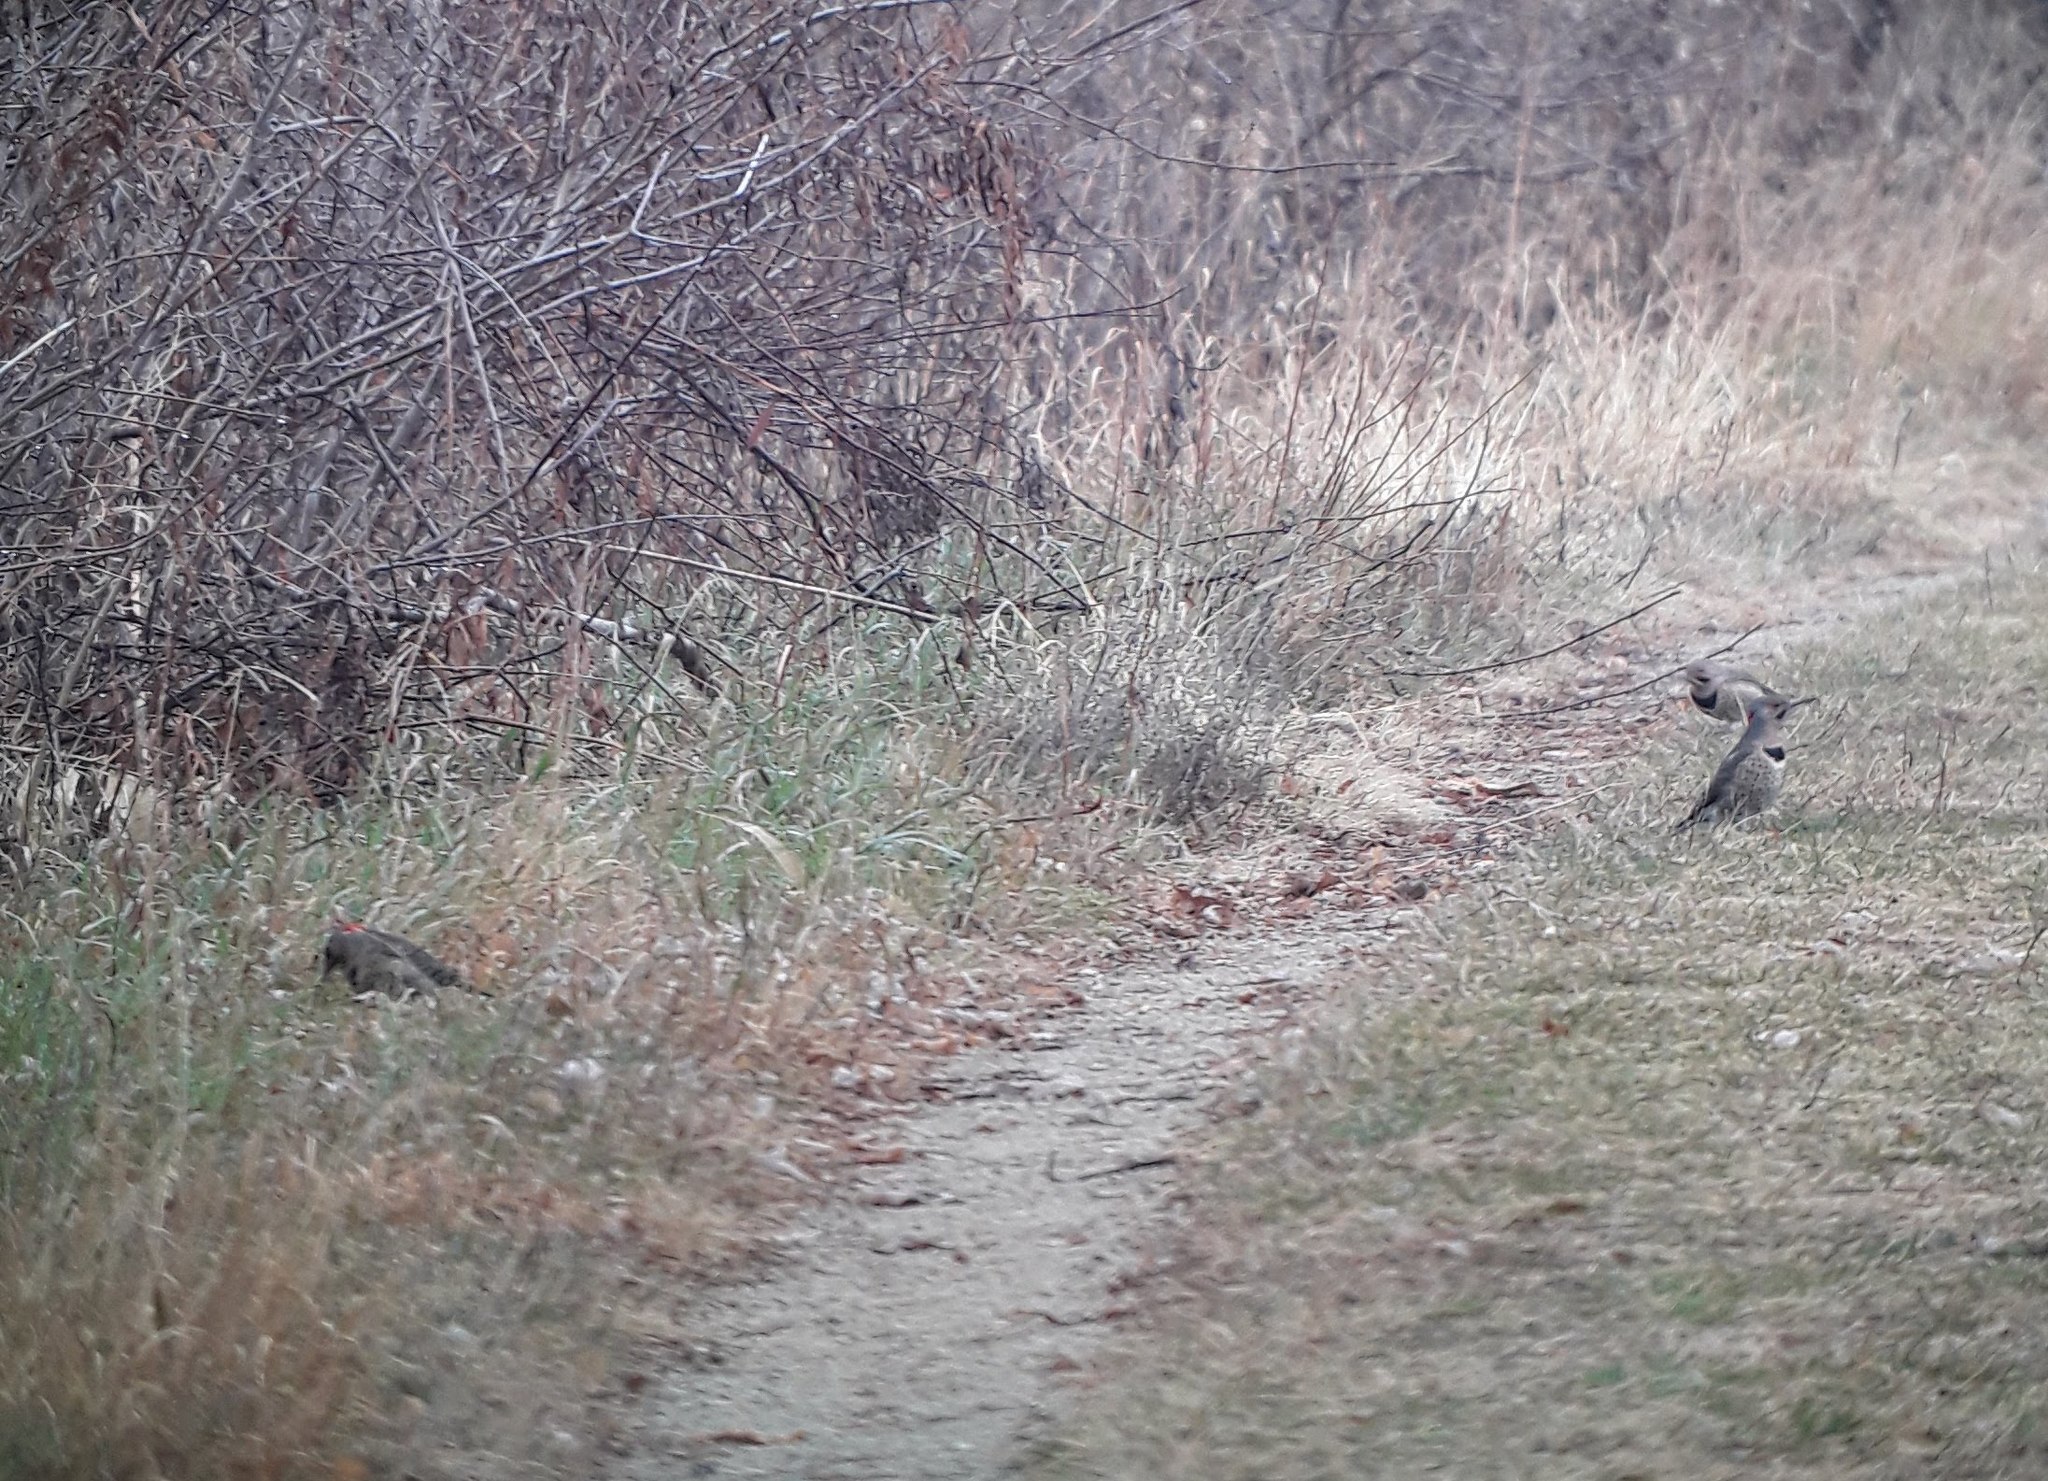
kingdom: Animalia
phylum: Chordata
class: Aves
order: Piciformes
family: Picidae
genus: Colaptes
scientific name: Colaptes auratus
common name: Northern flicker
